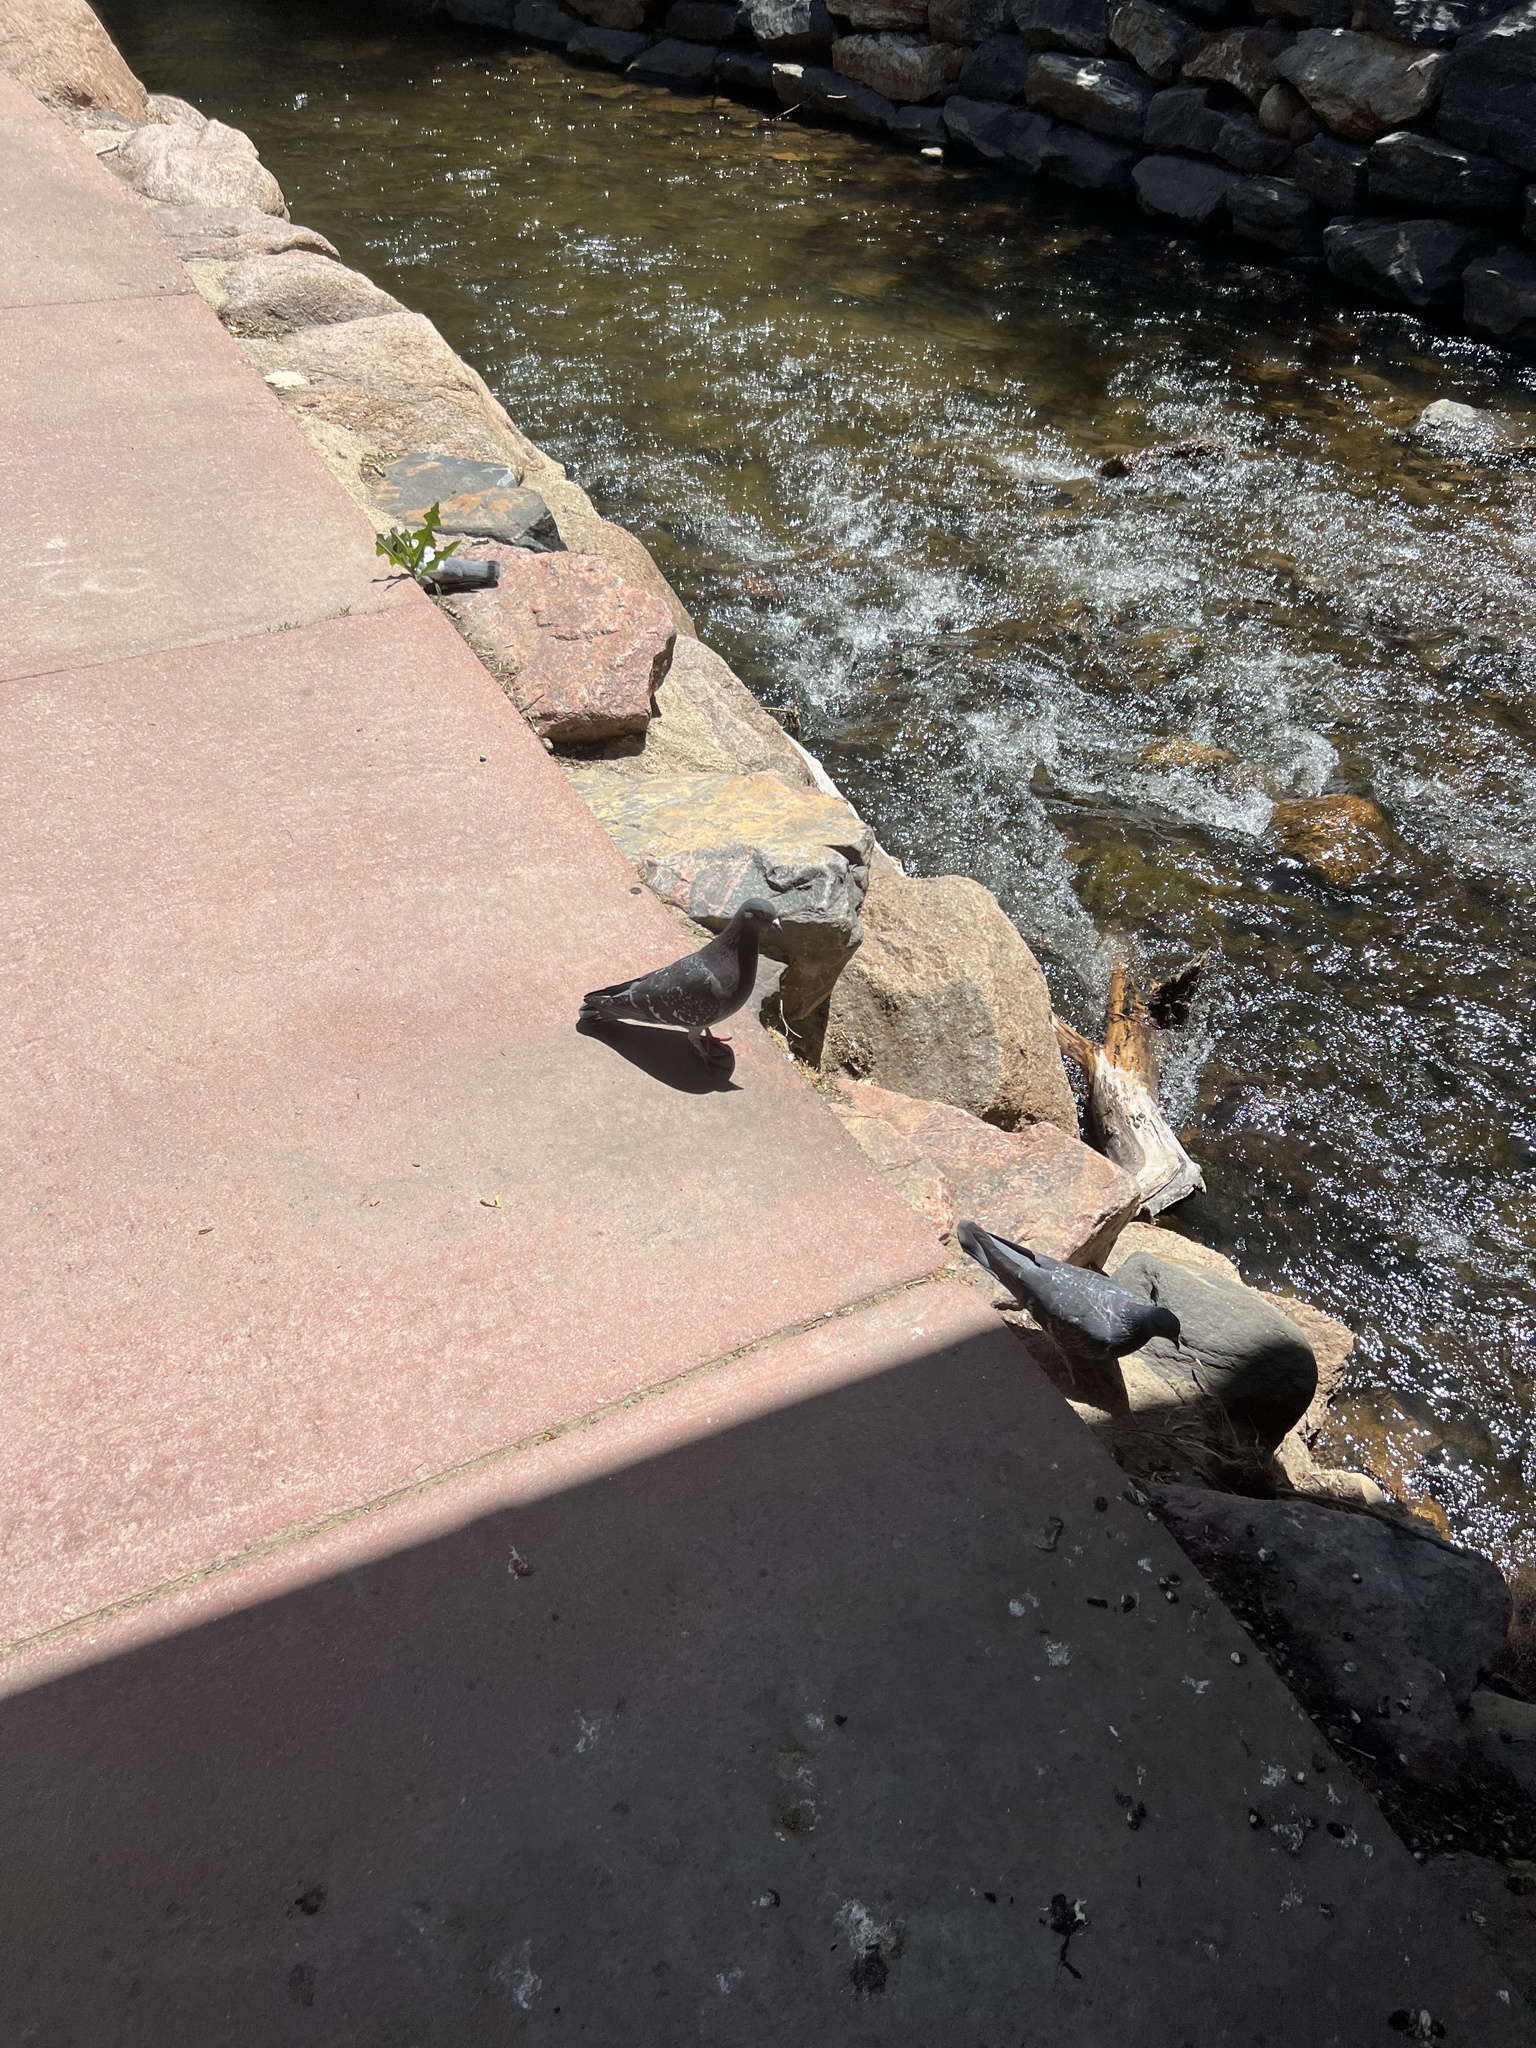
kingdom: Animalia
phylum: Chordata
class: Aves
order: Columbiformes
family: Columbidae
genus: Columba
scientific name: Columba livia
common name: Rock pigeon
